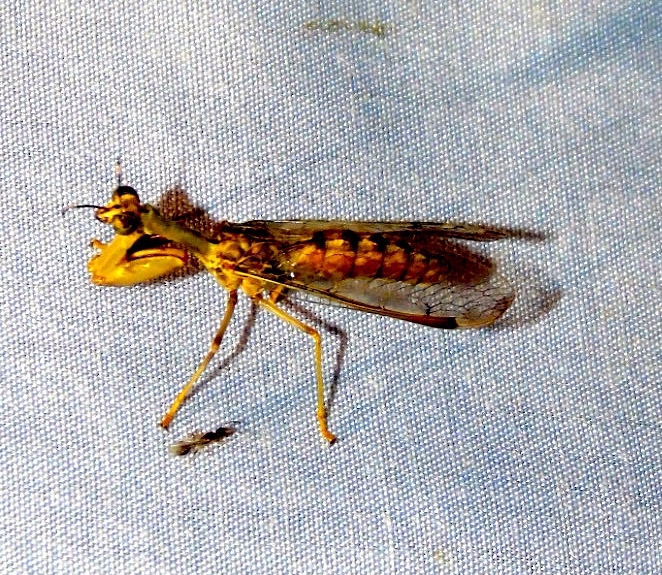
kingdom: Animalia
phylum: Arthropoda
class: Insecta
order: Neuroptera
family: Mantispidae
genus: Dicromantispa
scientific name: Dicromantispa interrupta
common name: Four-spotted mantidfly
